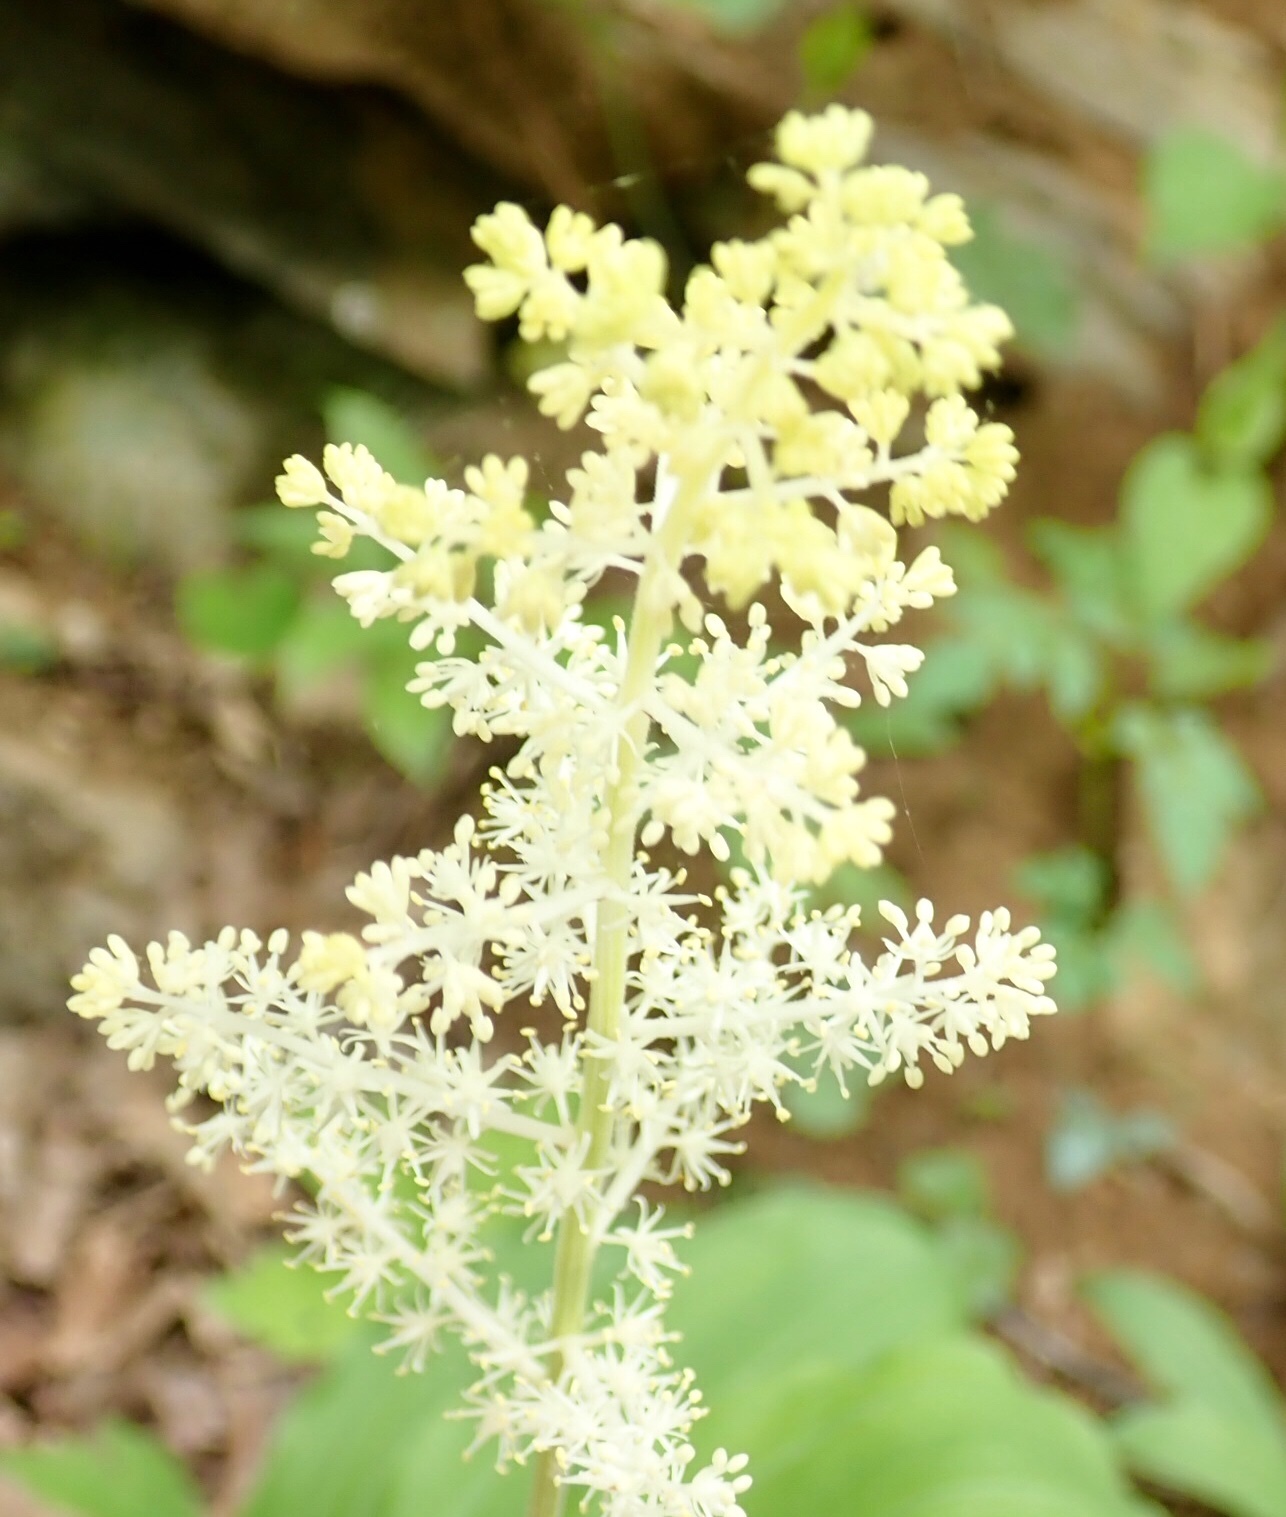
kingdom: Plantae
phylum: Tracheophyta
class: Liliopsida
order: Asparagales
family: Asparagaceae
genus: Maianthemum
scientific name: Maianthemum racemosum
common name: False spikenard
